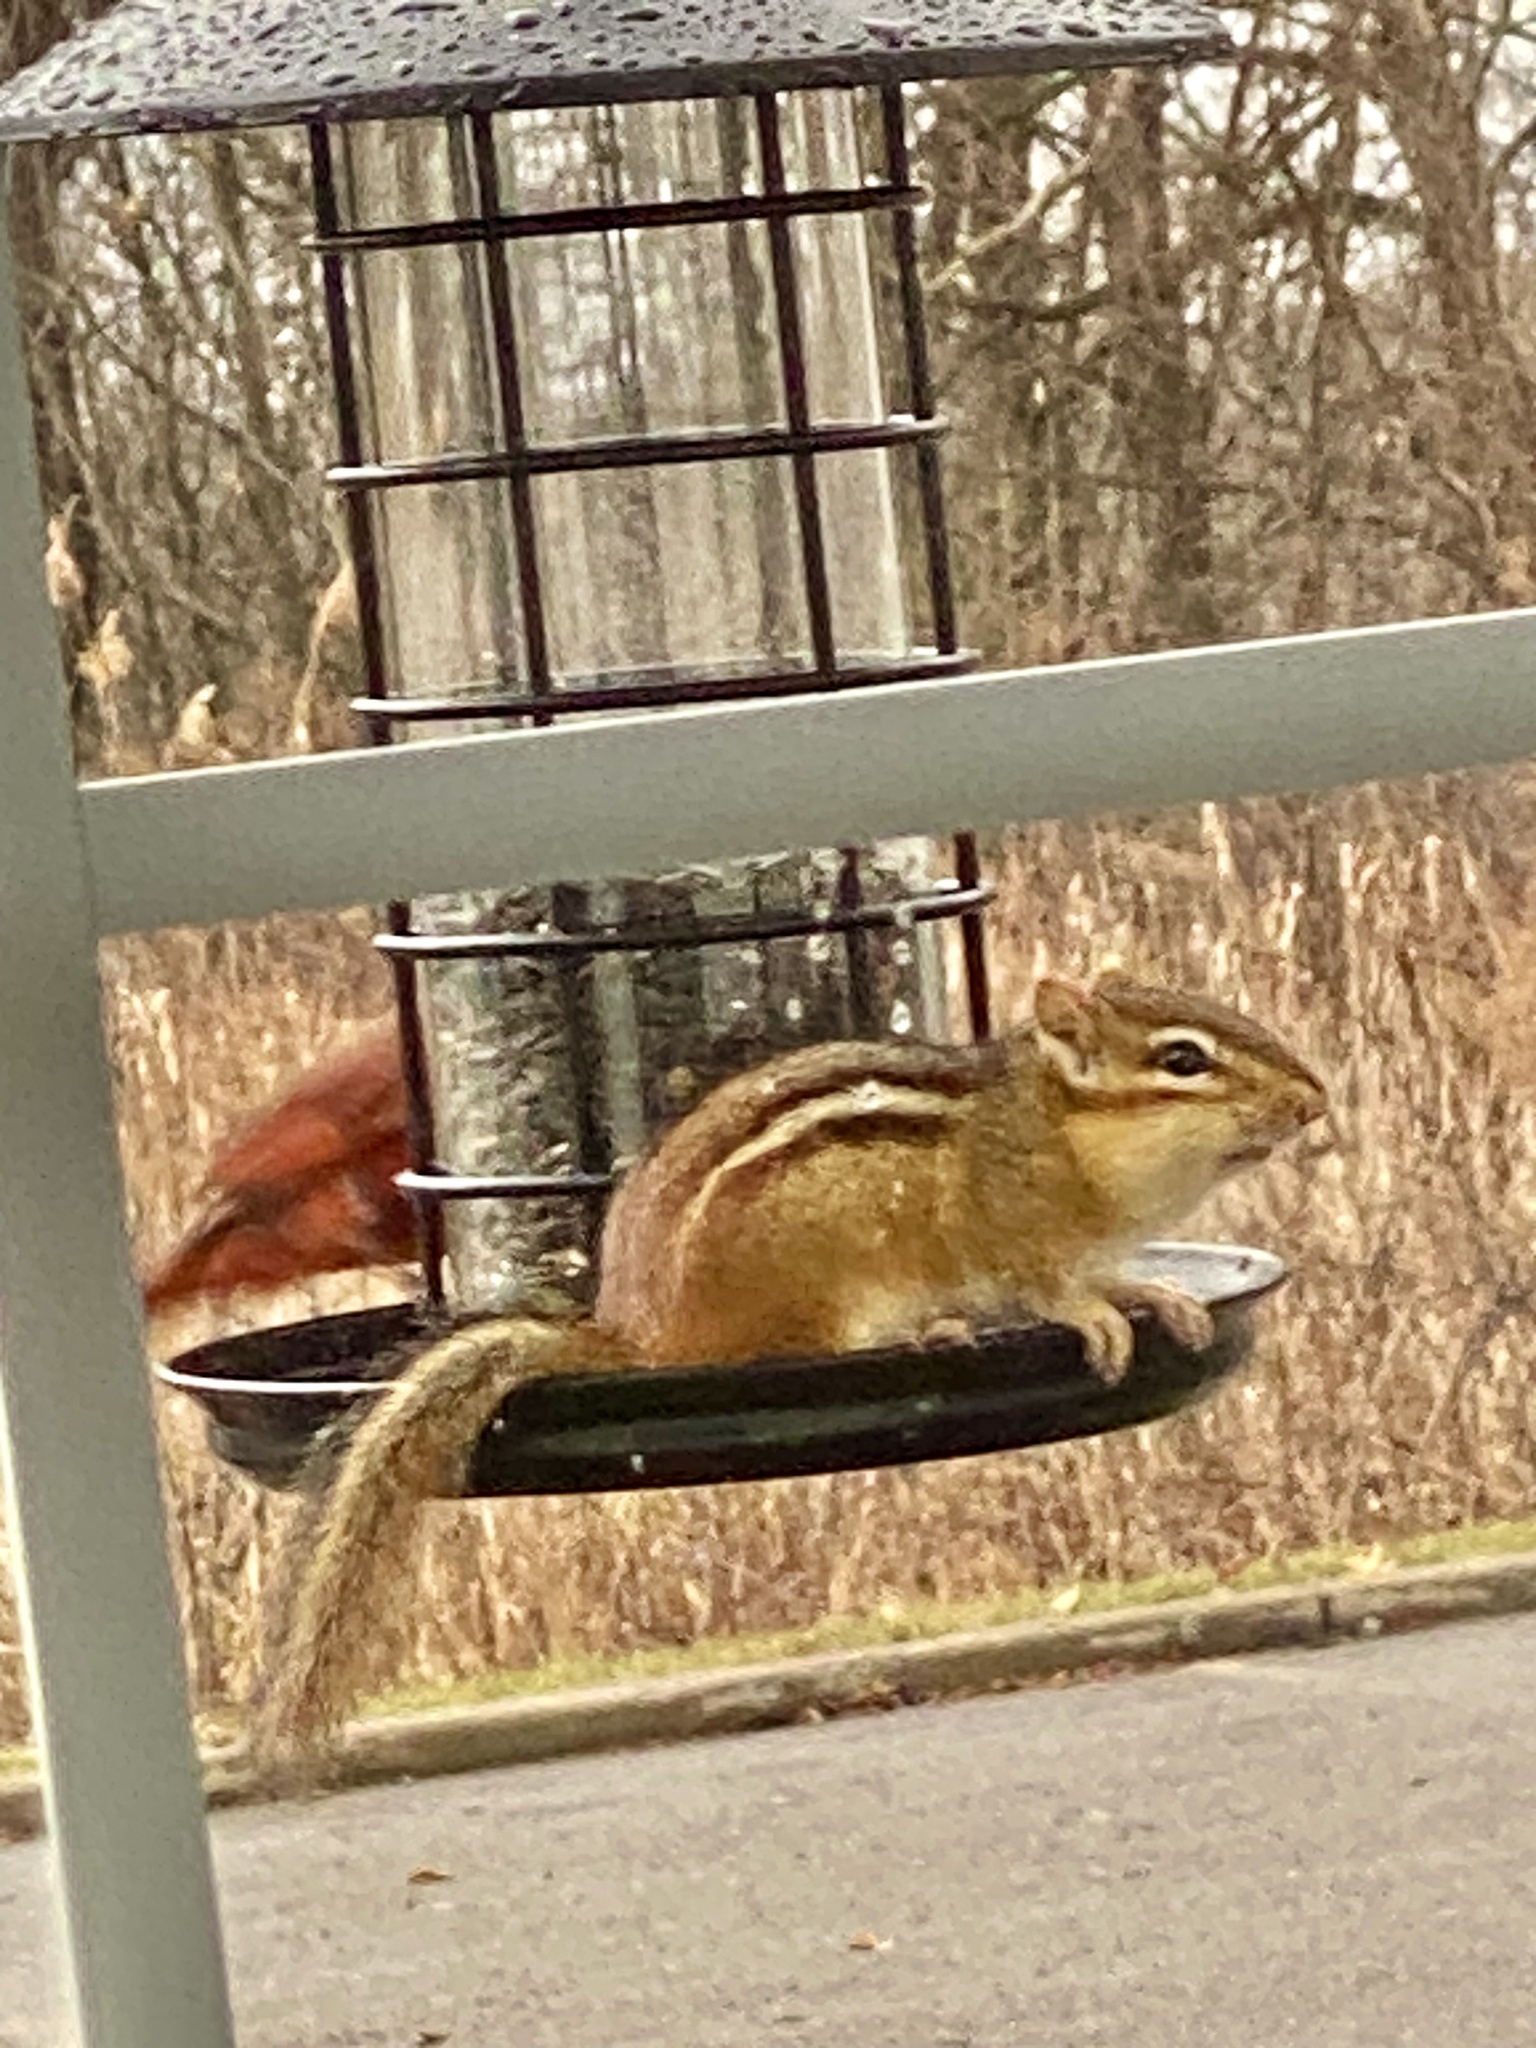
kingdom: Animalia
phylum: Chordata
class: Mammalia
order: Rodentia
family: Sciuridae
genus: Tamias
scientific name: Tamias striatus
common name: Eastern chipmunk
